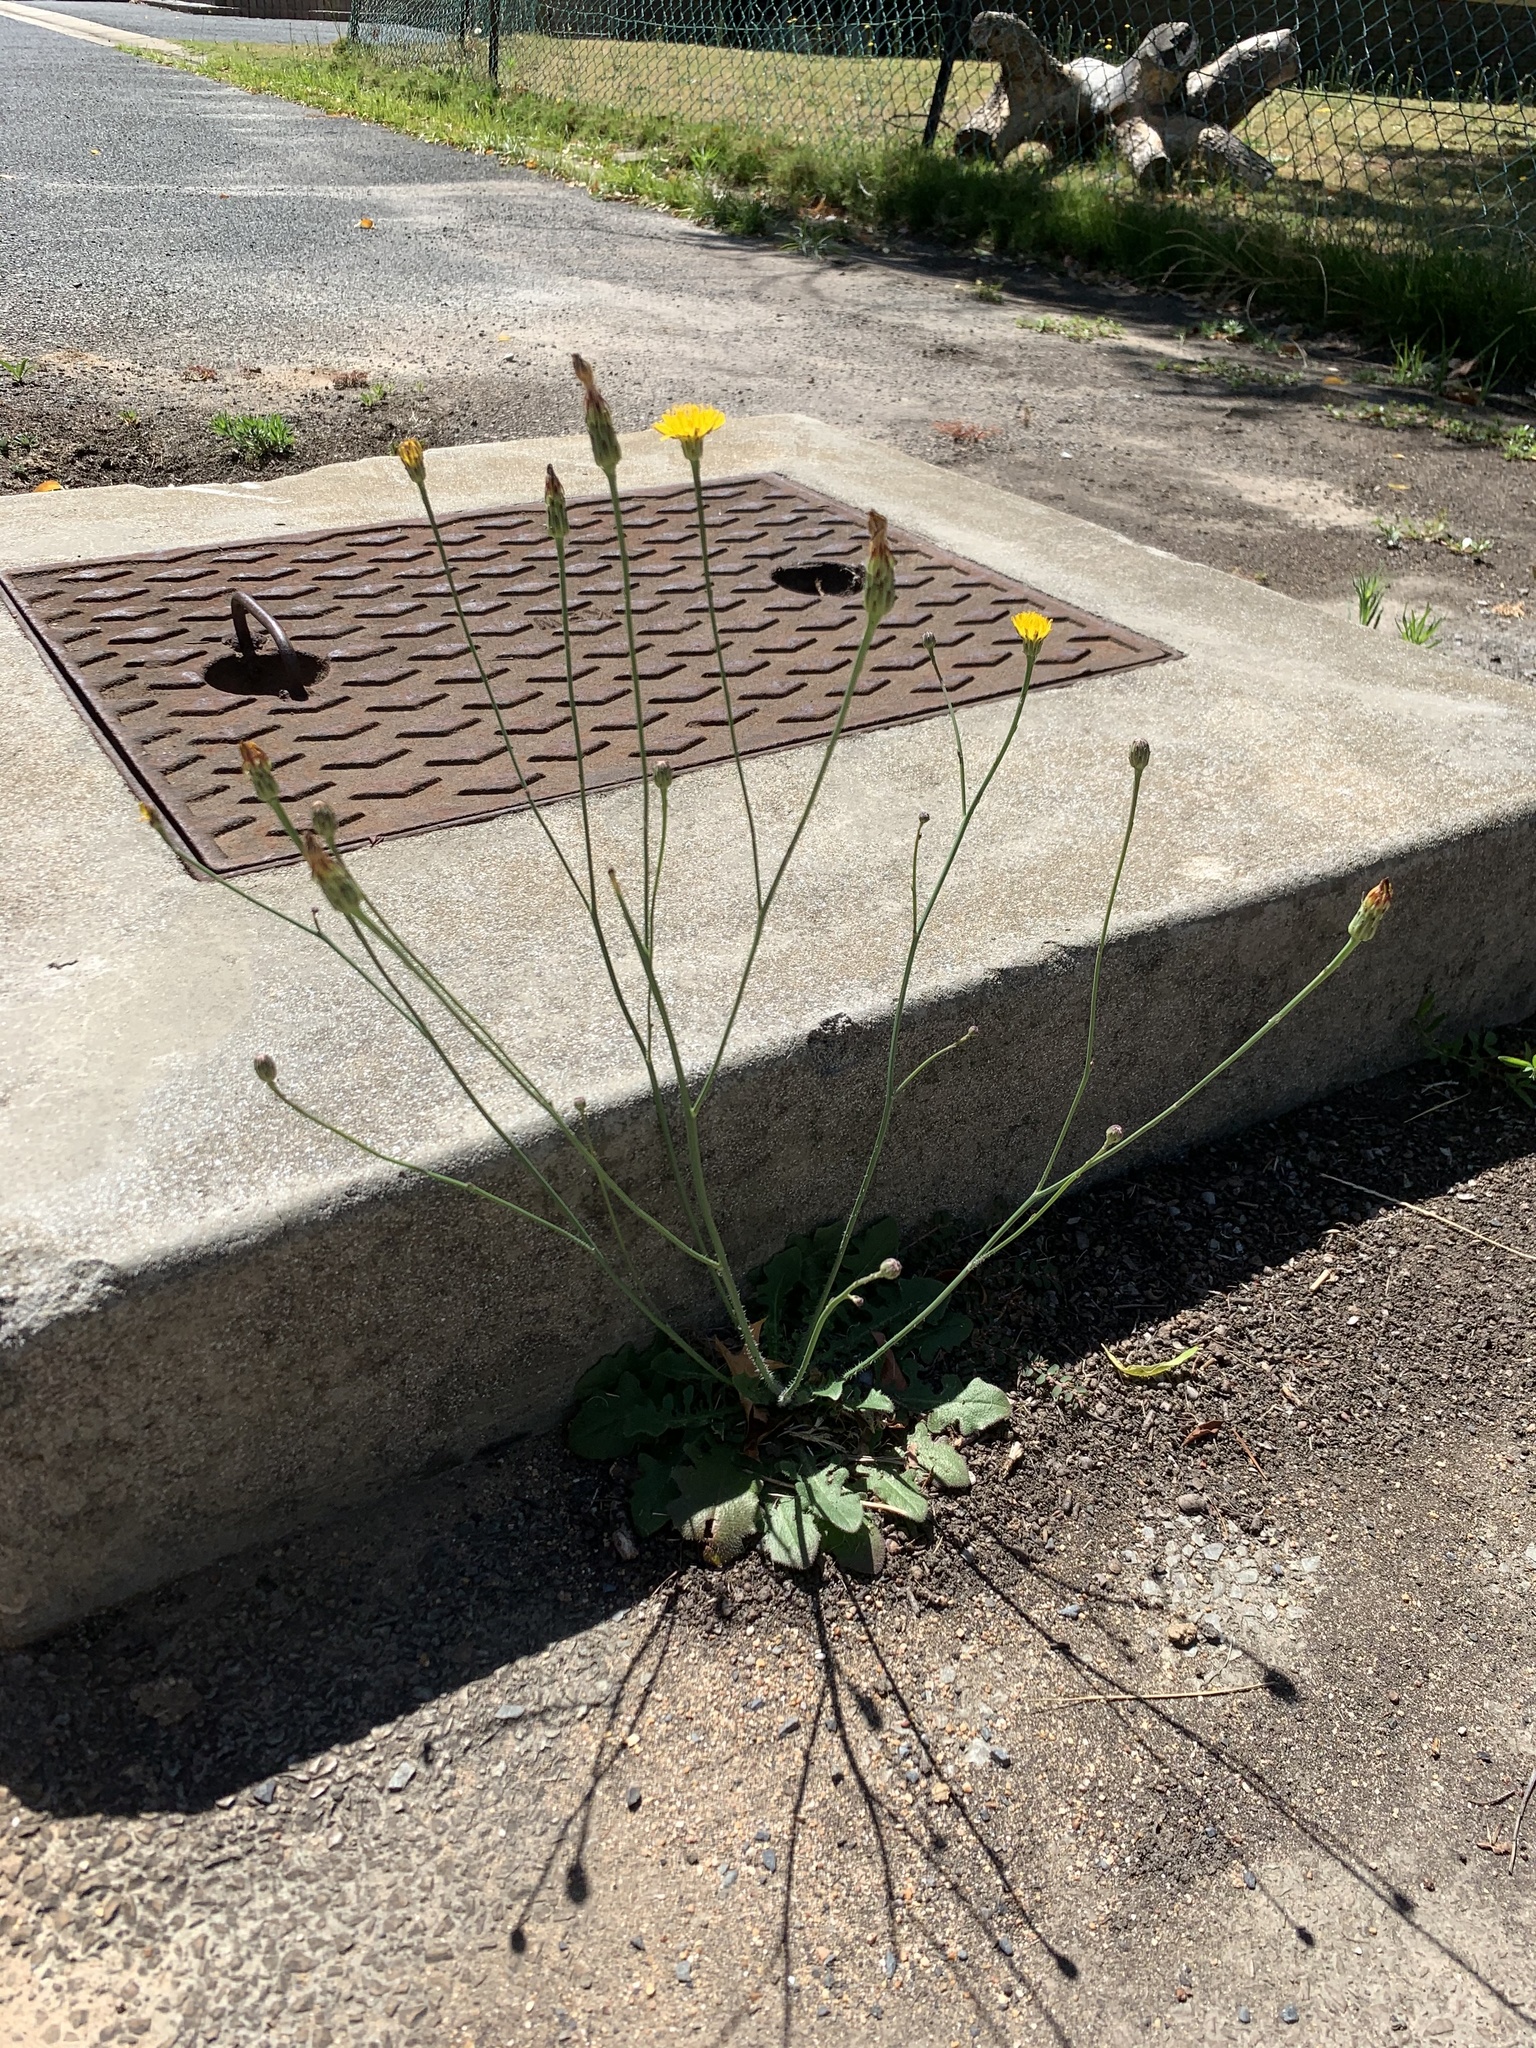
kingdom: Plantae
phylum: Tracheophyta
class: Magnoliopsida
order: Asterales
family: Asteraceae
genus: Hypochaeris
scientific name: Hypochaeris radicata
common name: Flatweed
